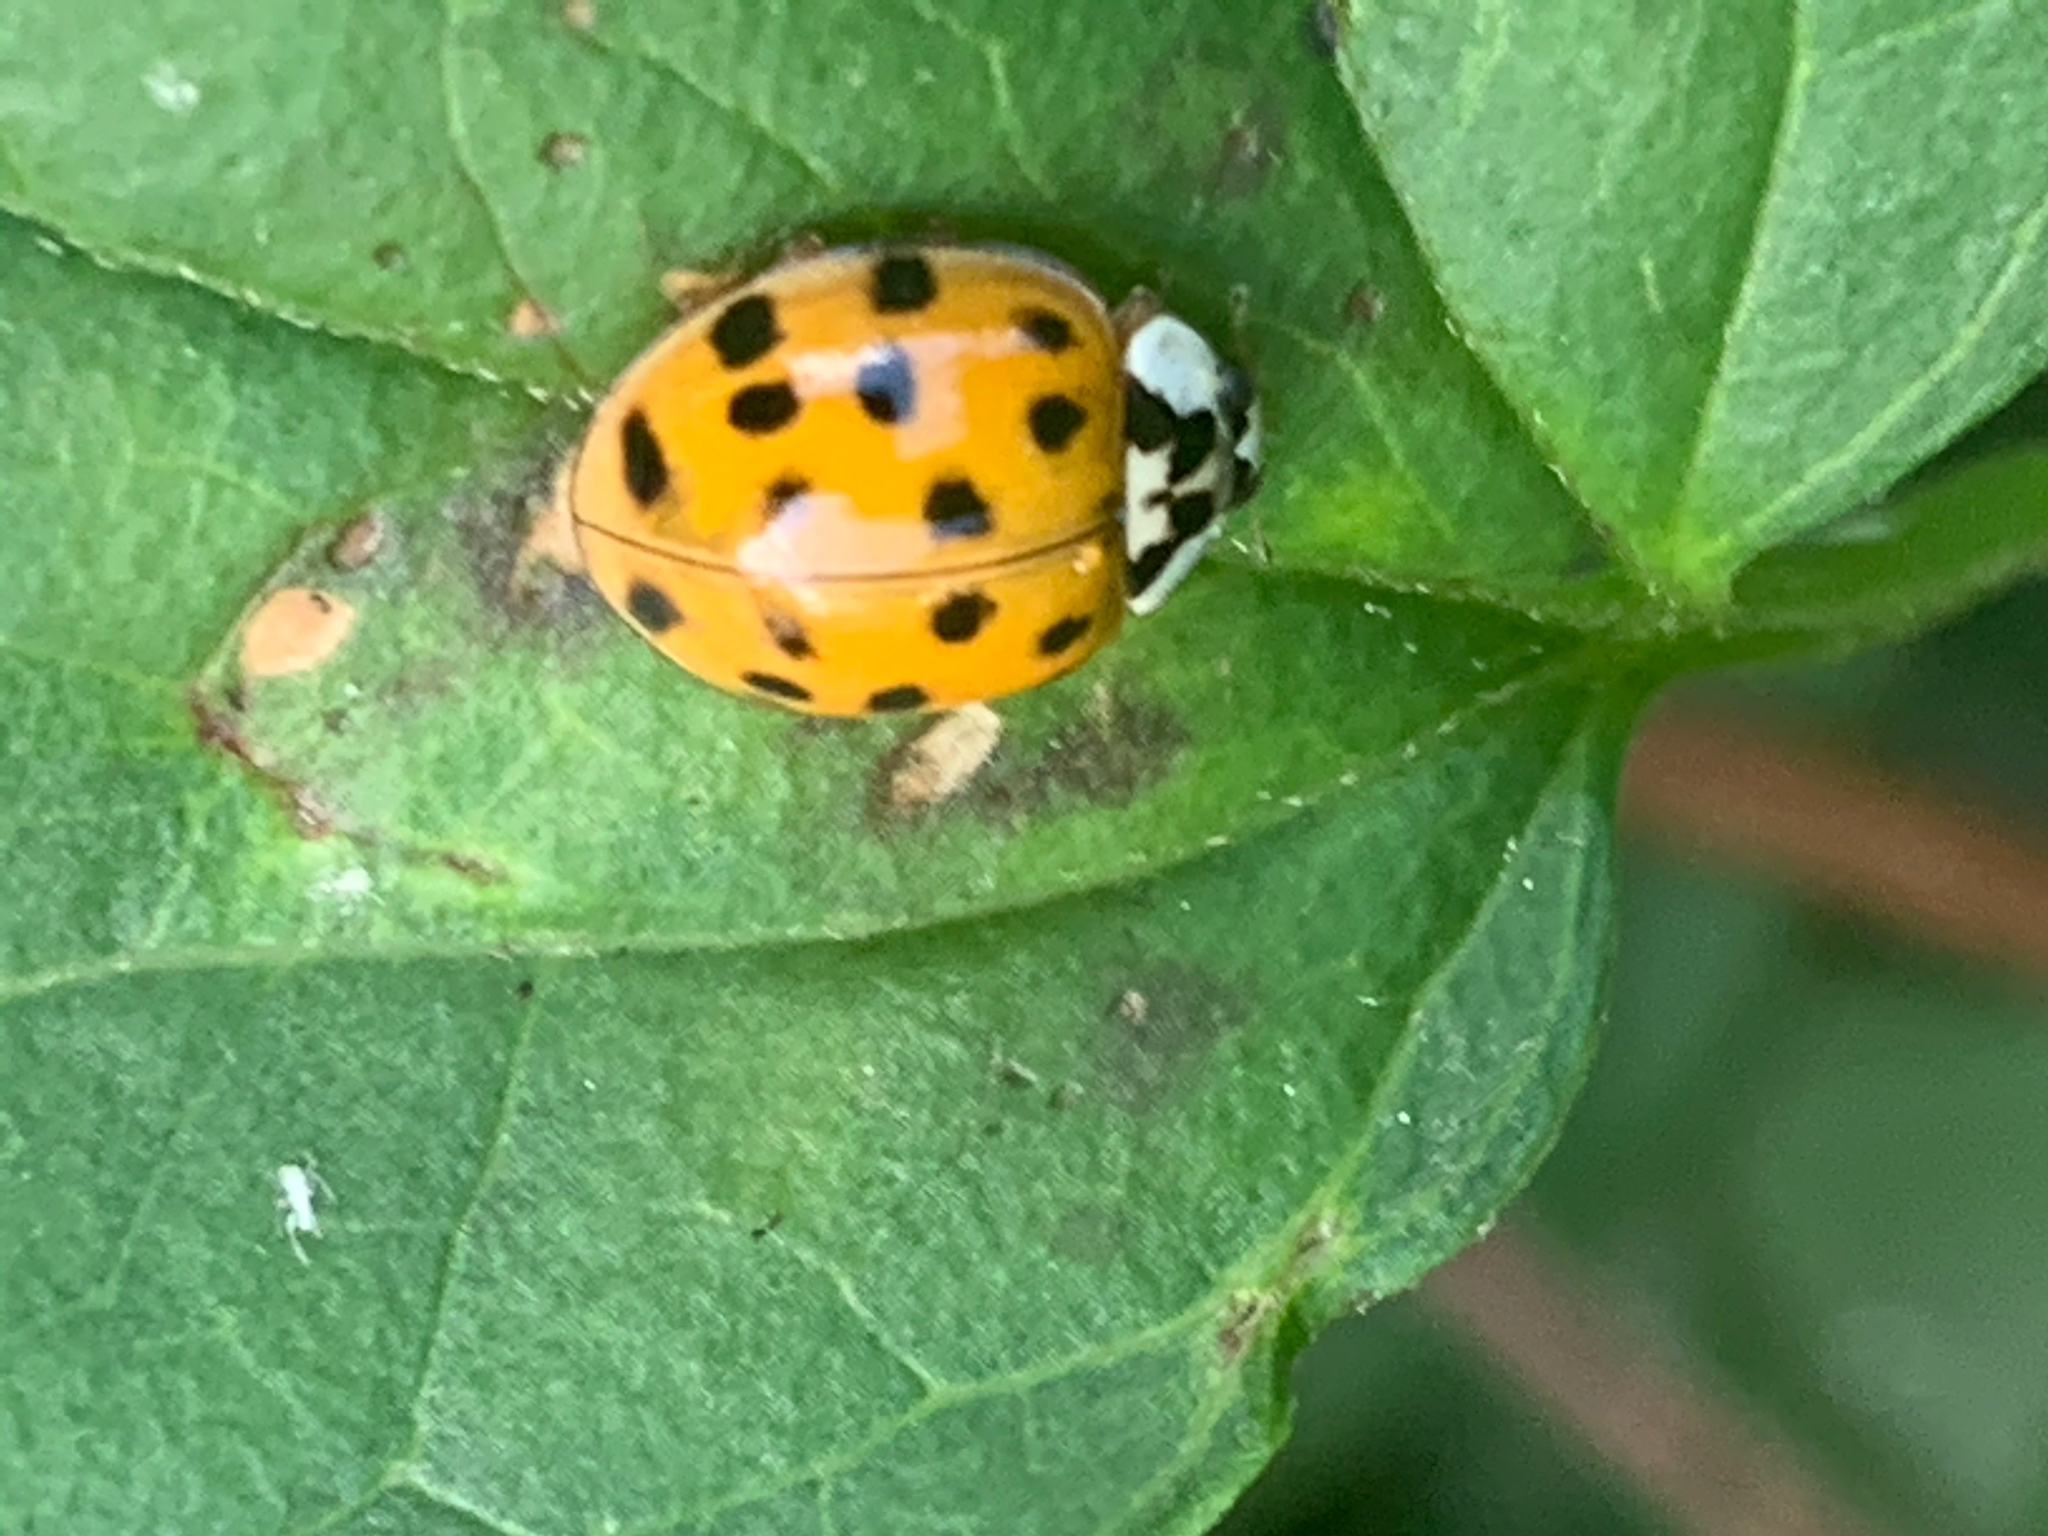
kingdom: Animalia
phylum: Arthropoda
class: Insecta
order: Coleoptera
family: Coccinellidae
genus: Harmonia
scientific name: Harmonia axyridis
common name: Harlequin ladybird
